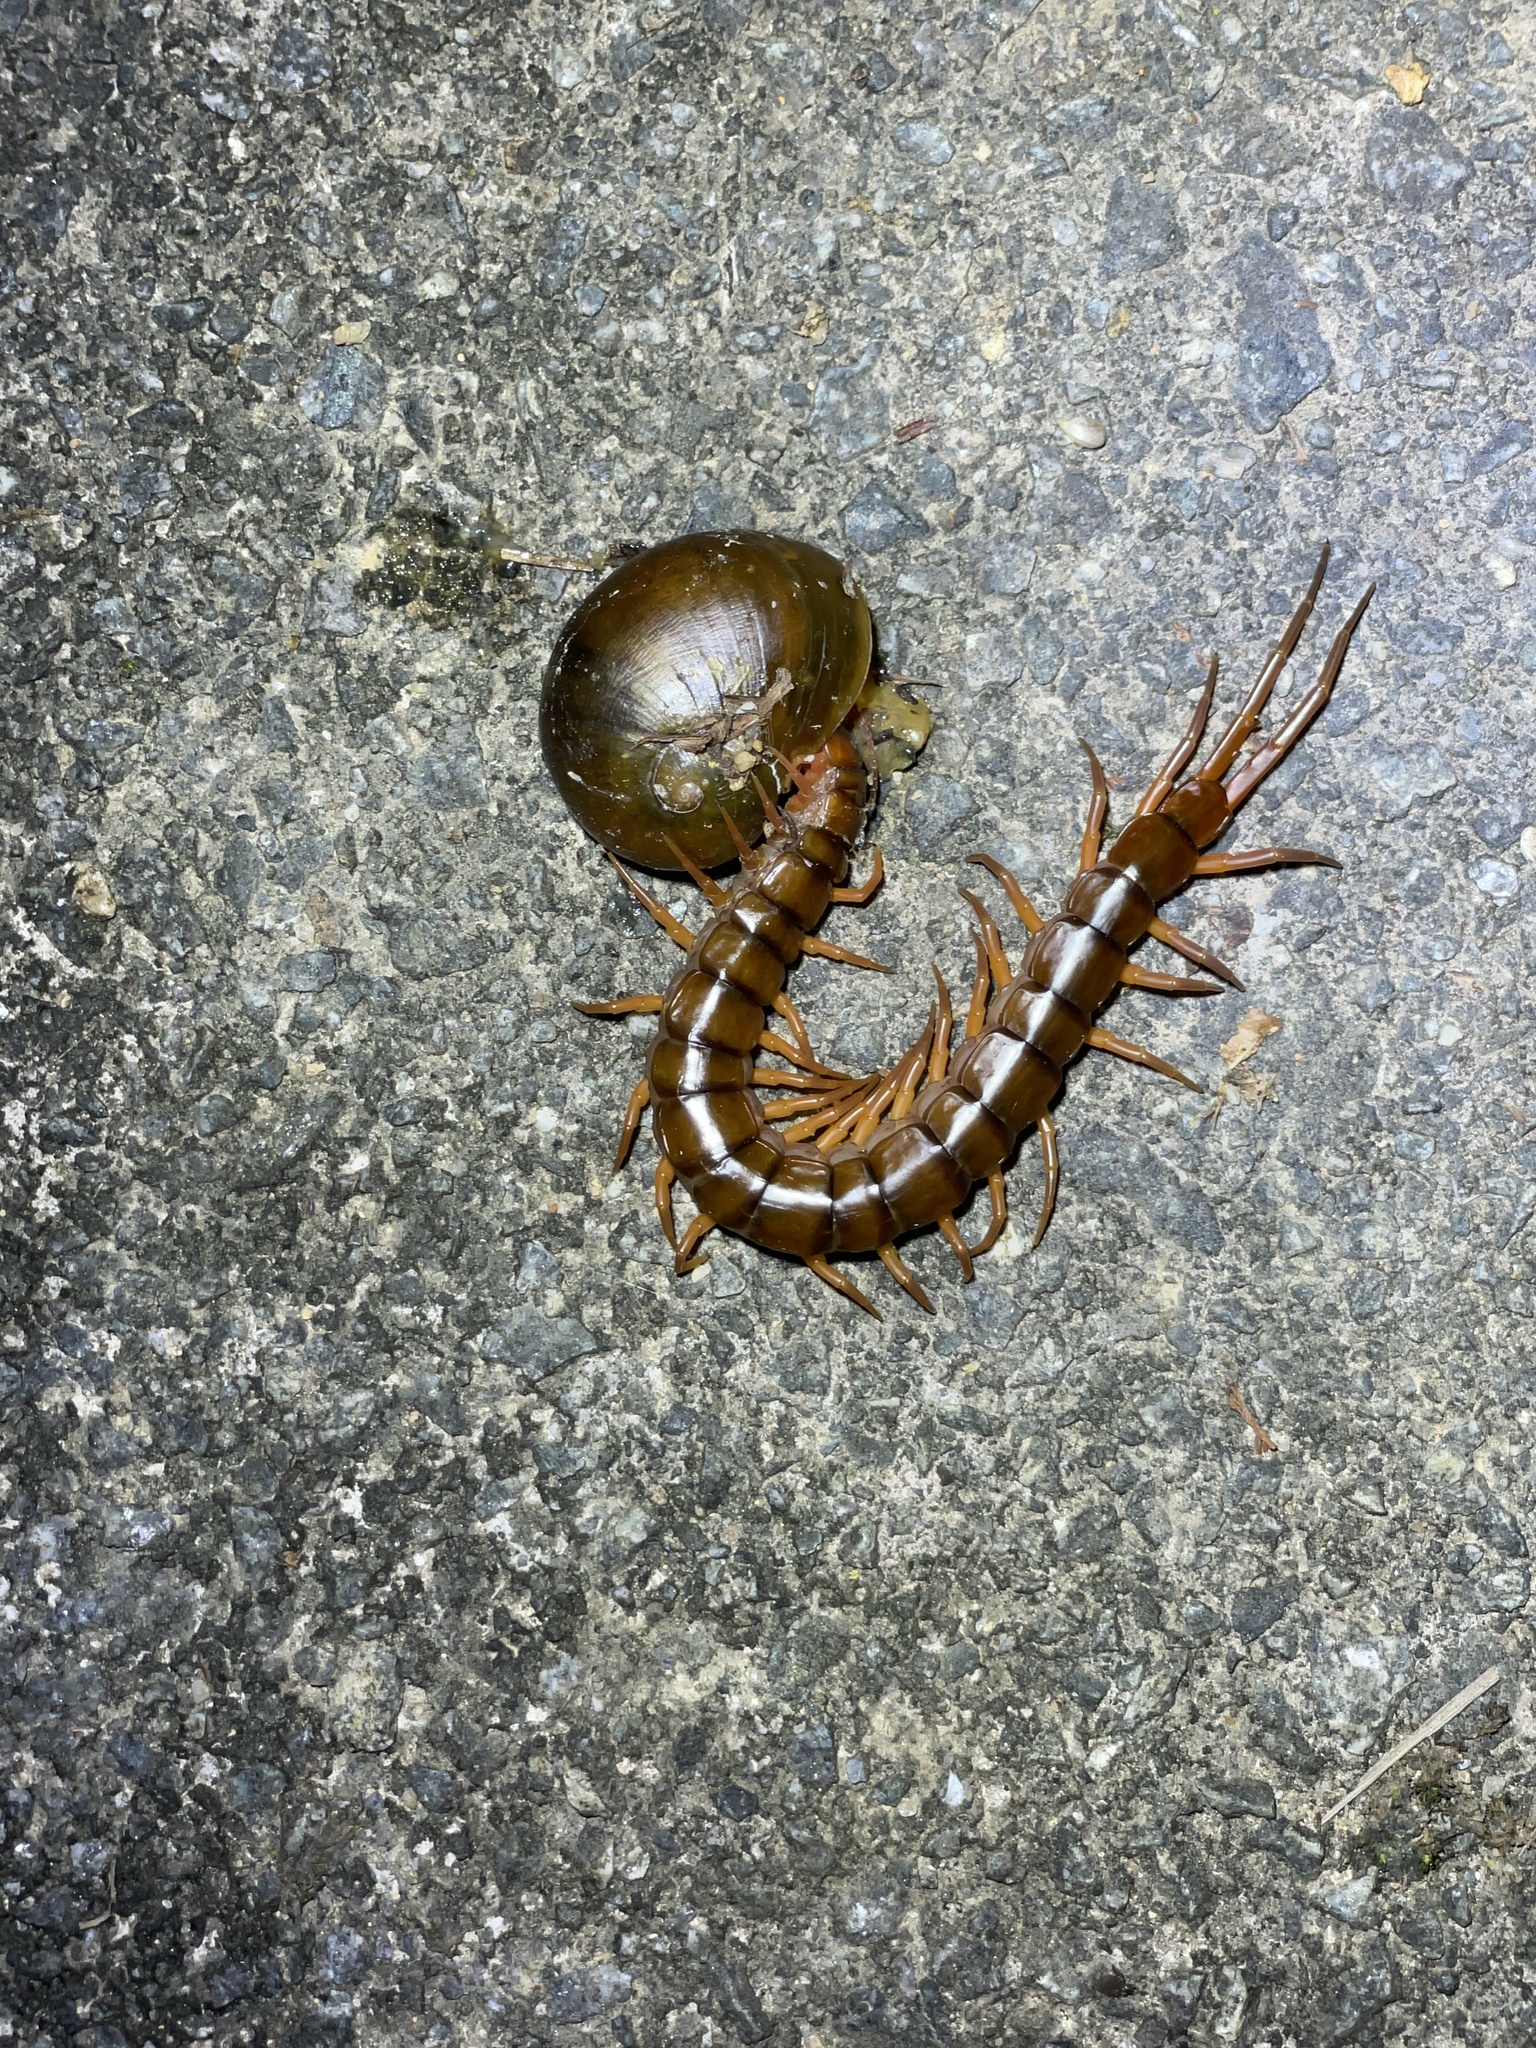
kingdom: Animalia
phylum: Arthropoda
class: Chilopoda
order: Scolopendromorpha
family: Scolopendridae
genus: Scolopendra
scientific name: Scolopendra dehaani
